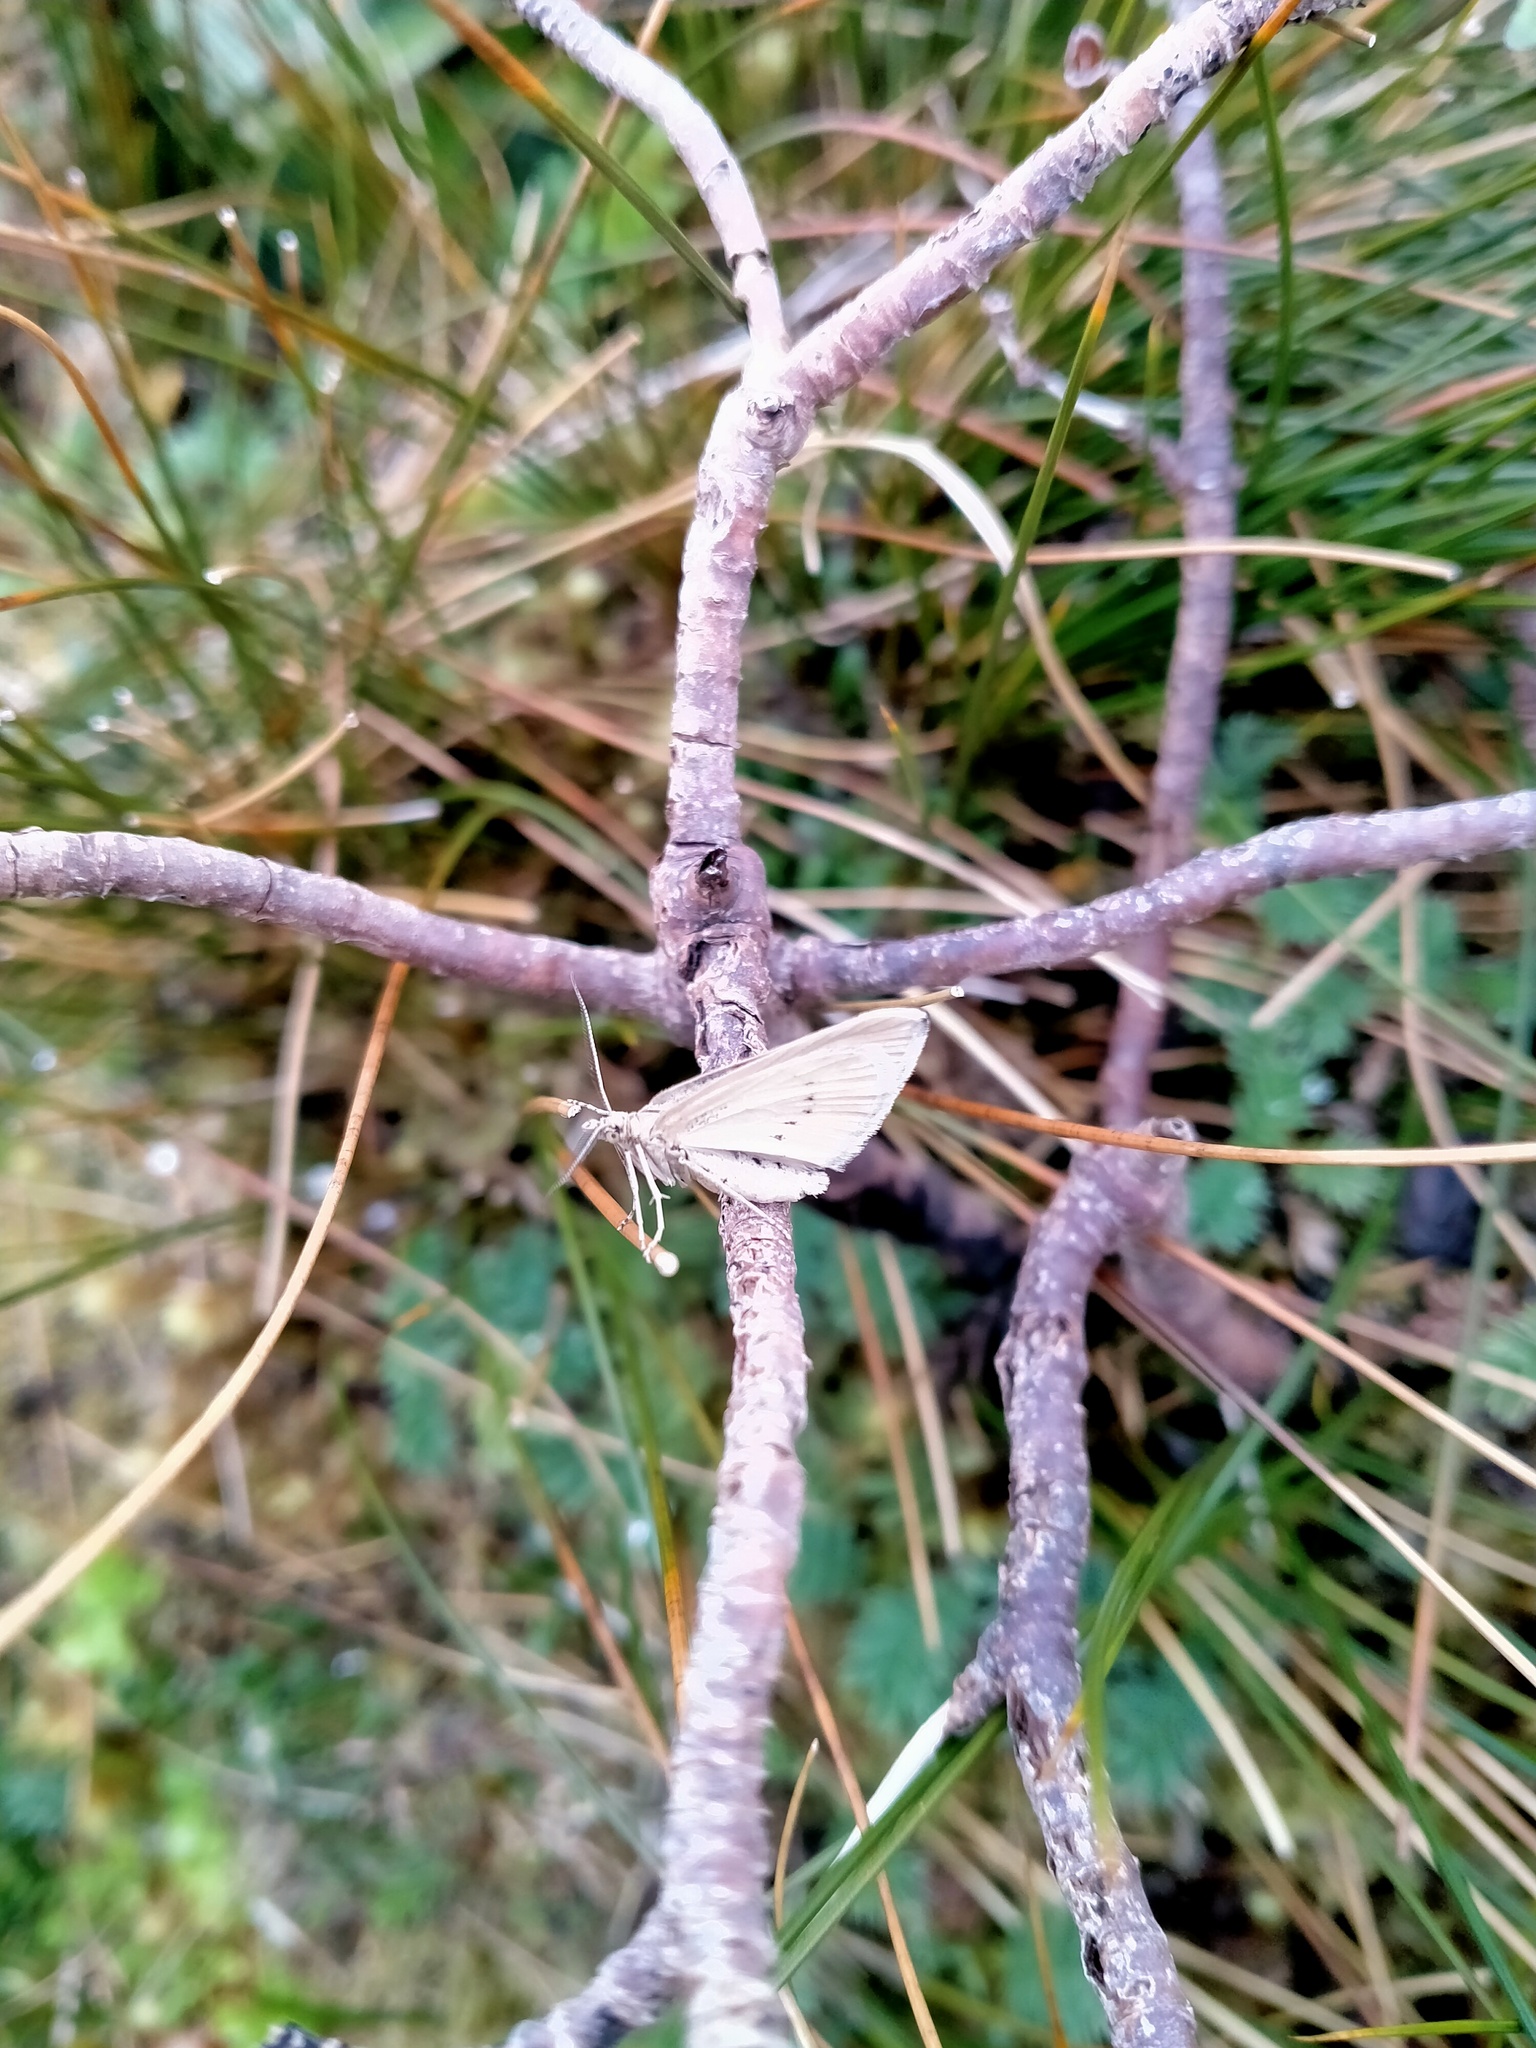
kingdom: Animalia
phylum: Arthropoda
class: Insecta
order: Lepidoptera
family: Geometridae
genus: Asaphodes
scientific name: Asaphodes oxyptera
